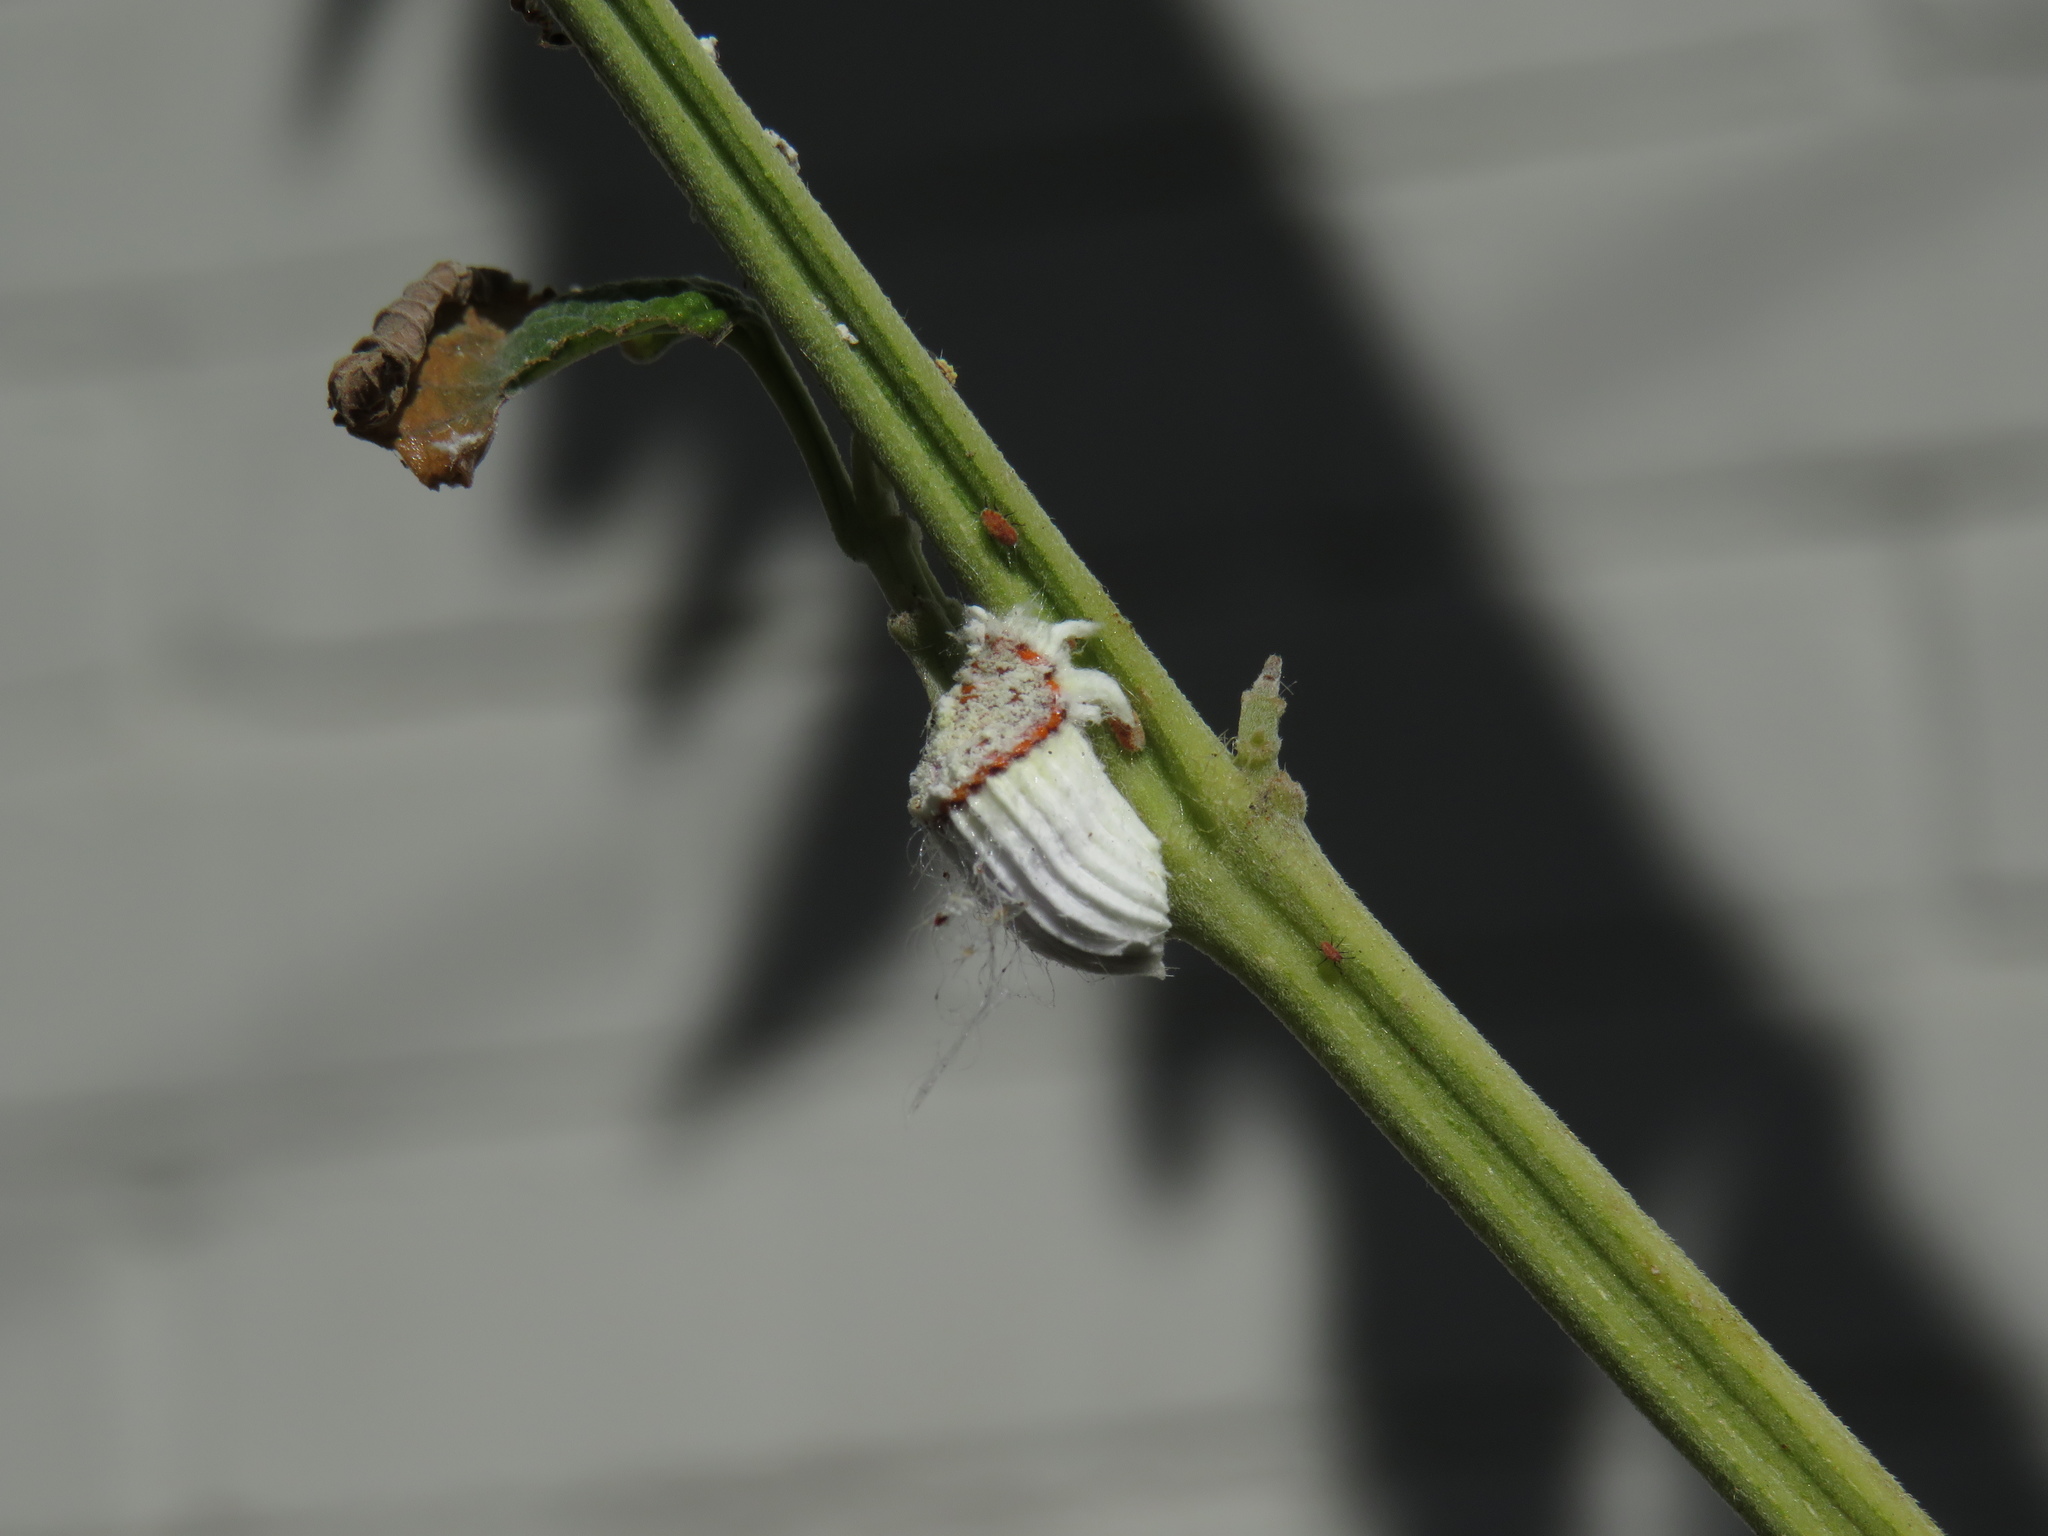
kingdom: Animalia
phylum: Arthropoda
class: Insecta
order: Hemiptera
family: Margarodidae
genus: Icerya
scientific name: Icerya purchasi
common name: Cottony cushion scale
